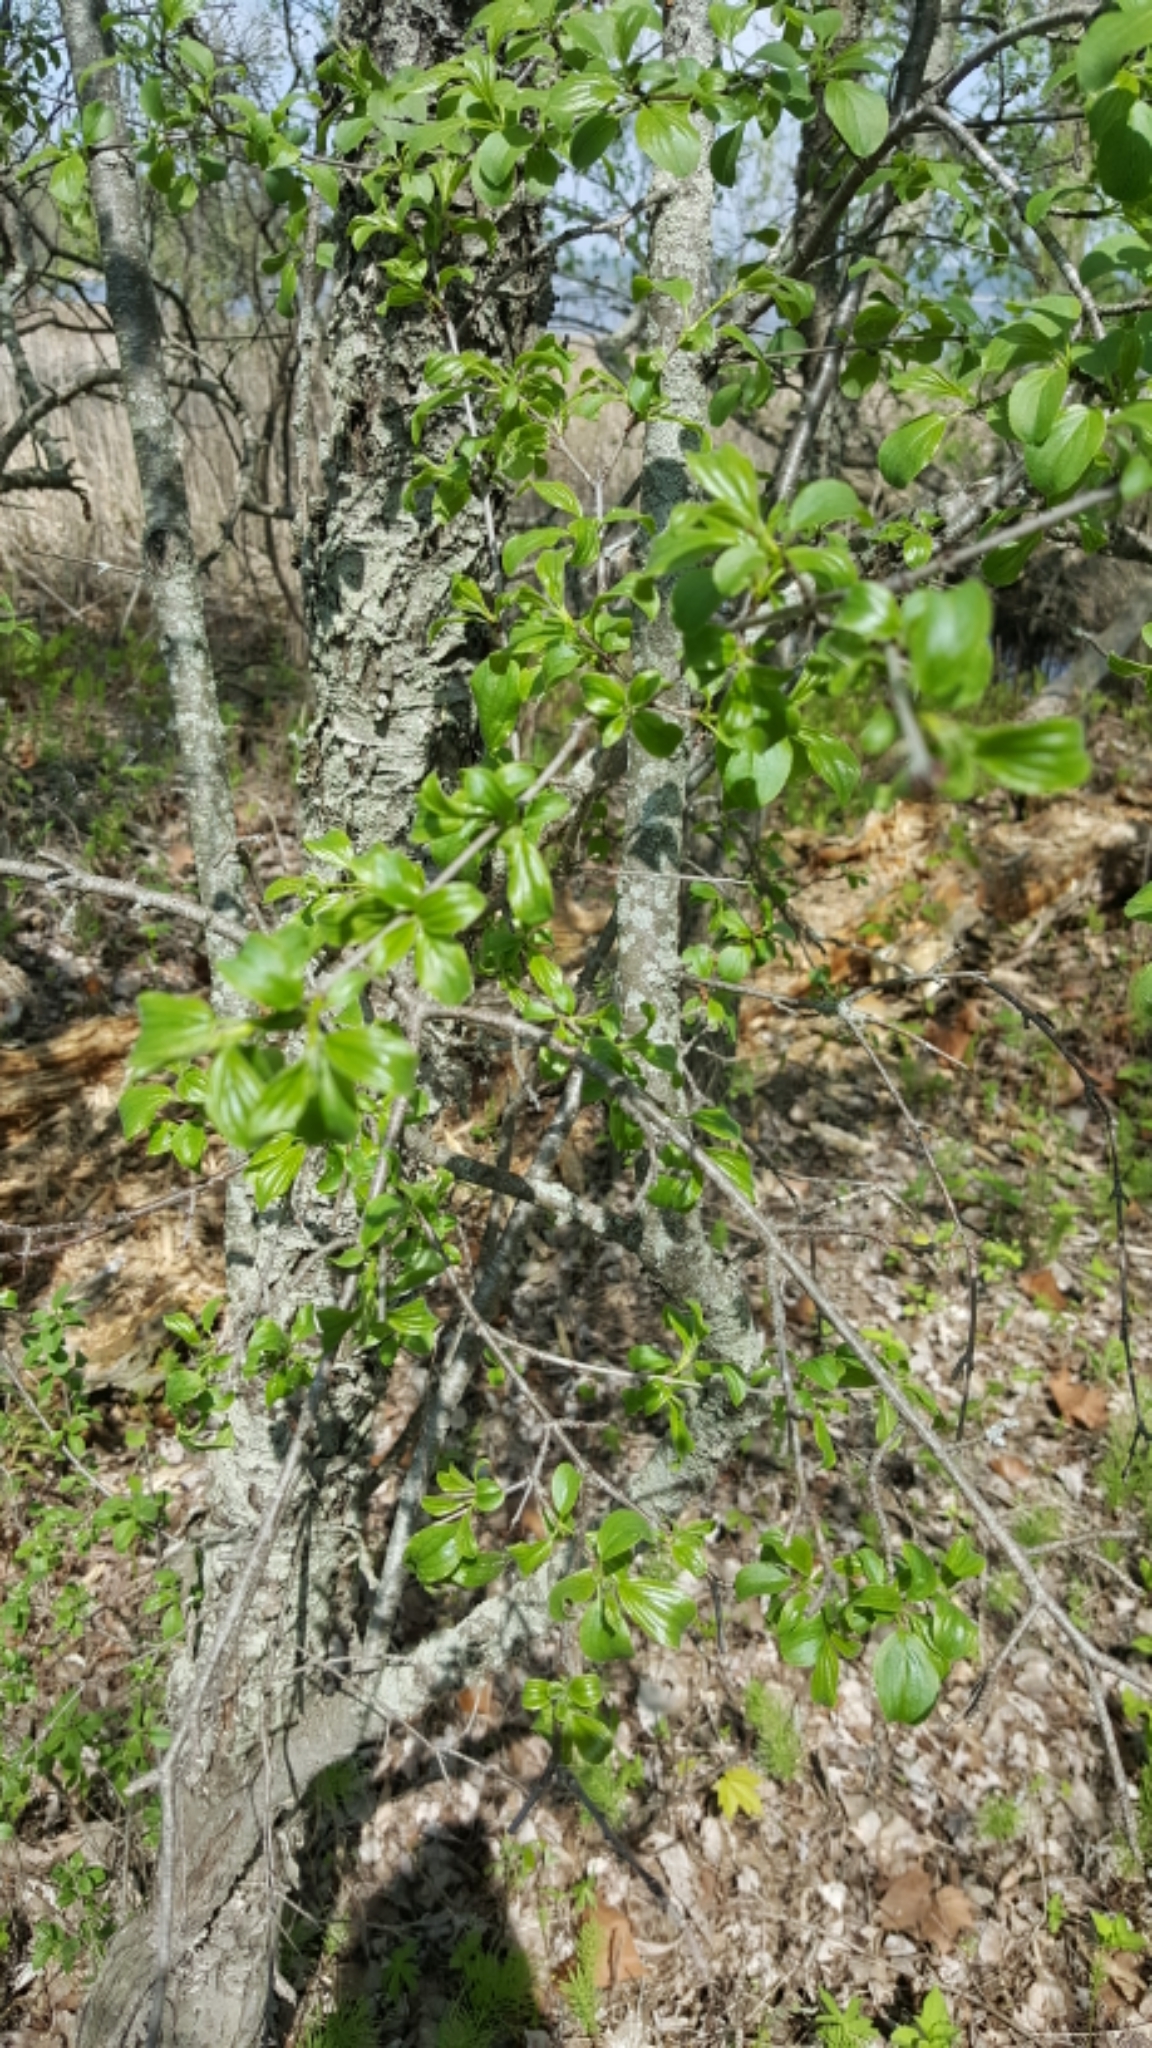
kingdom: Plantae
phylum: Tracheophyta
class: Magnoliopsida
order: Rosales
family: Rhamnaceae
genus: Rhamnus
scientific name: Rhamnus cathartica
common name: Common buckthorn
